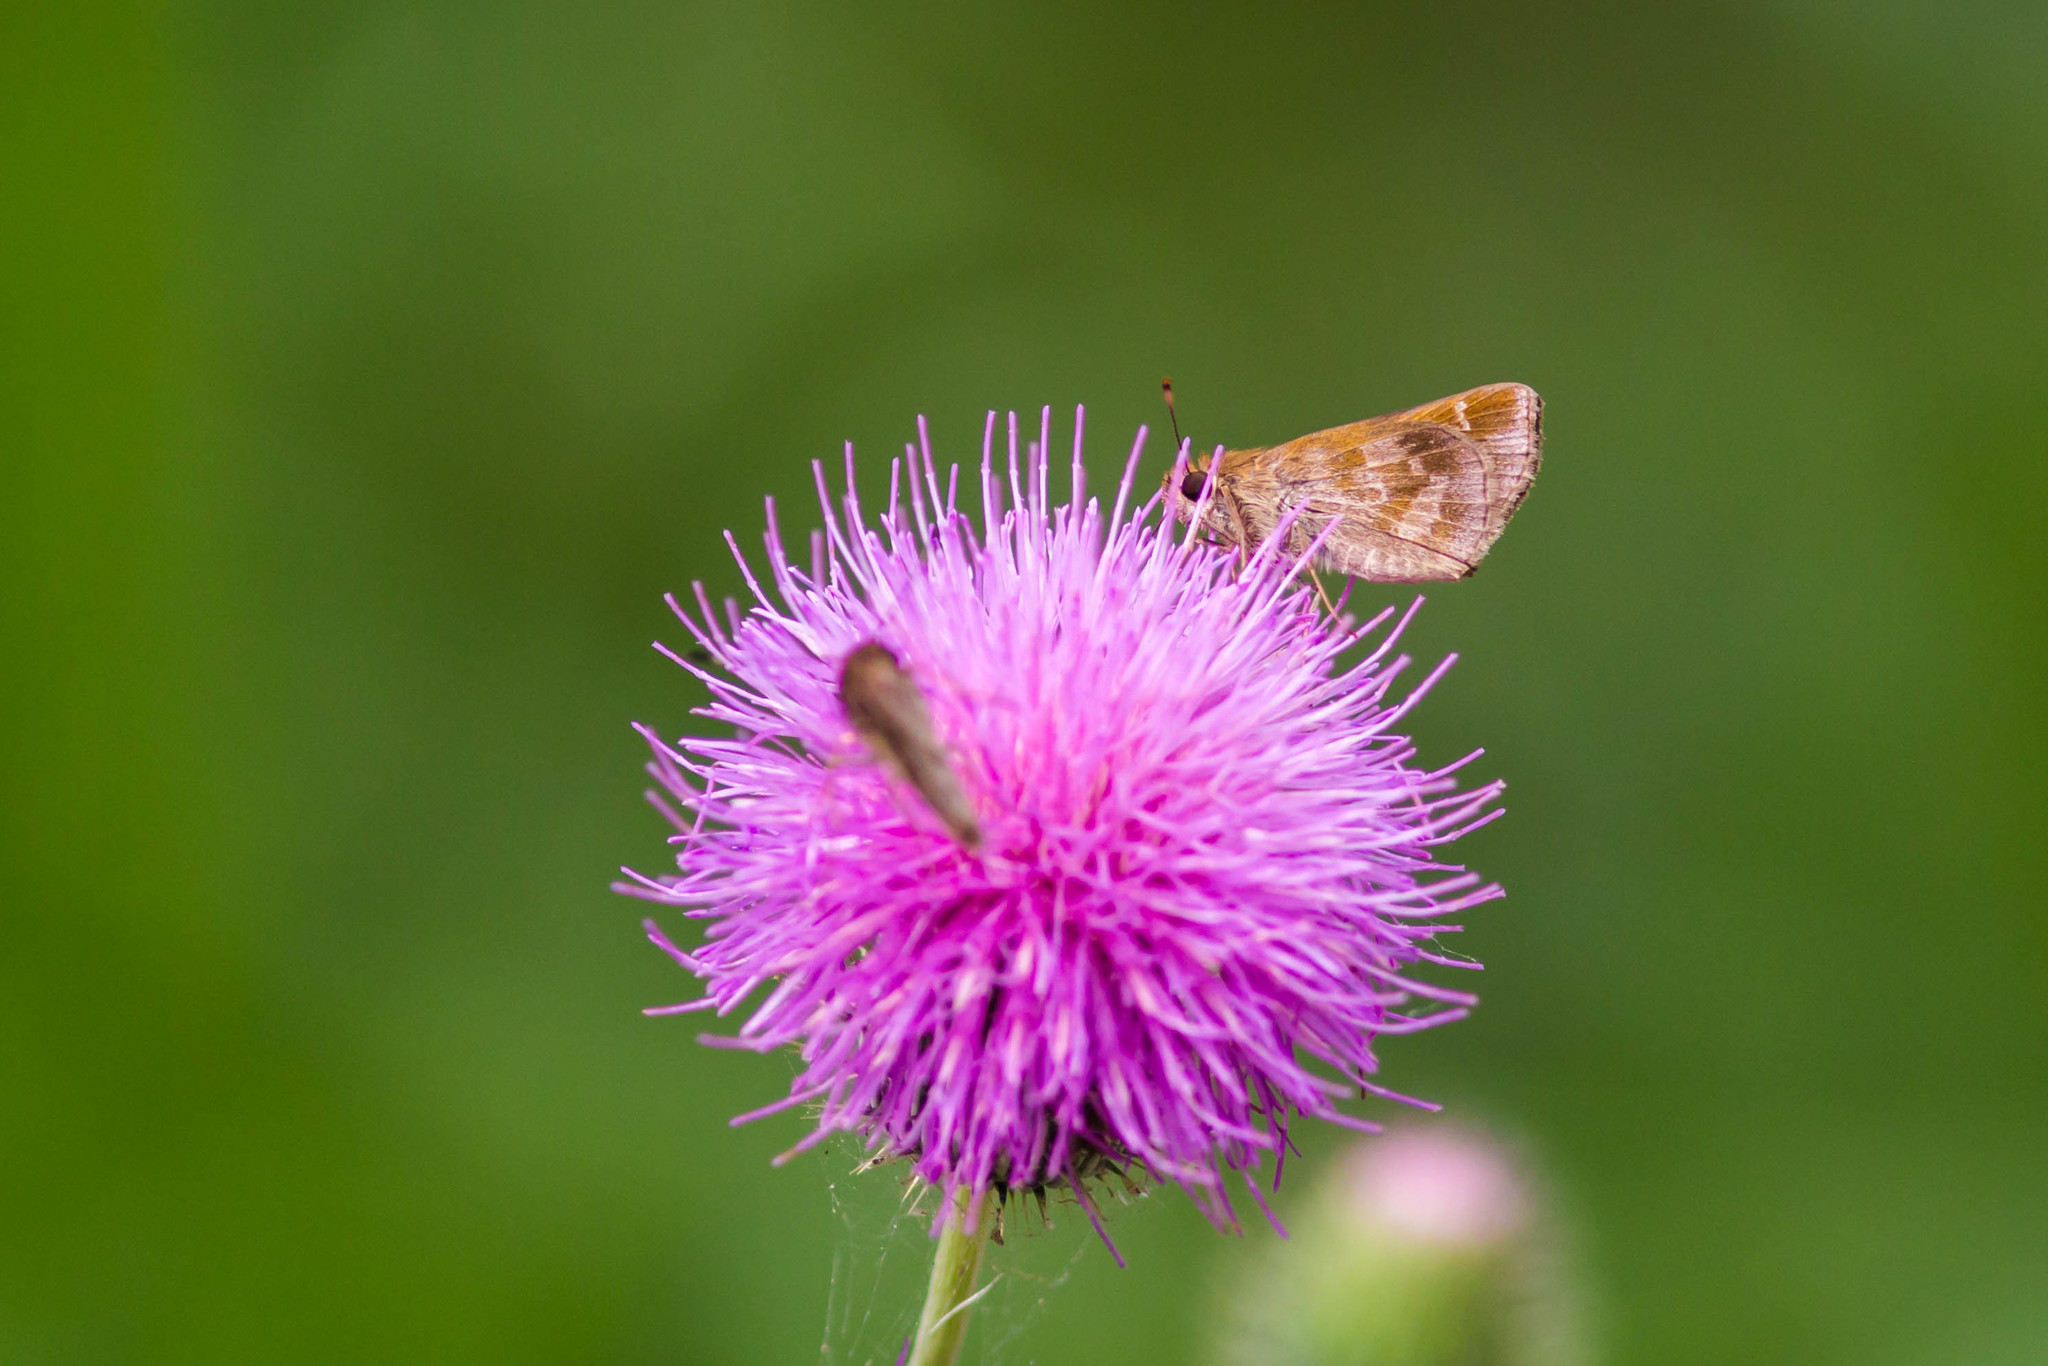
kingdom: Animalia
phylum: Arthropoda
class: Insecta
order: Lepidoptera
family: Hesperiidae
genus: Cymaenes
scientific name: Cymaenes
